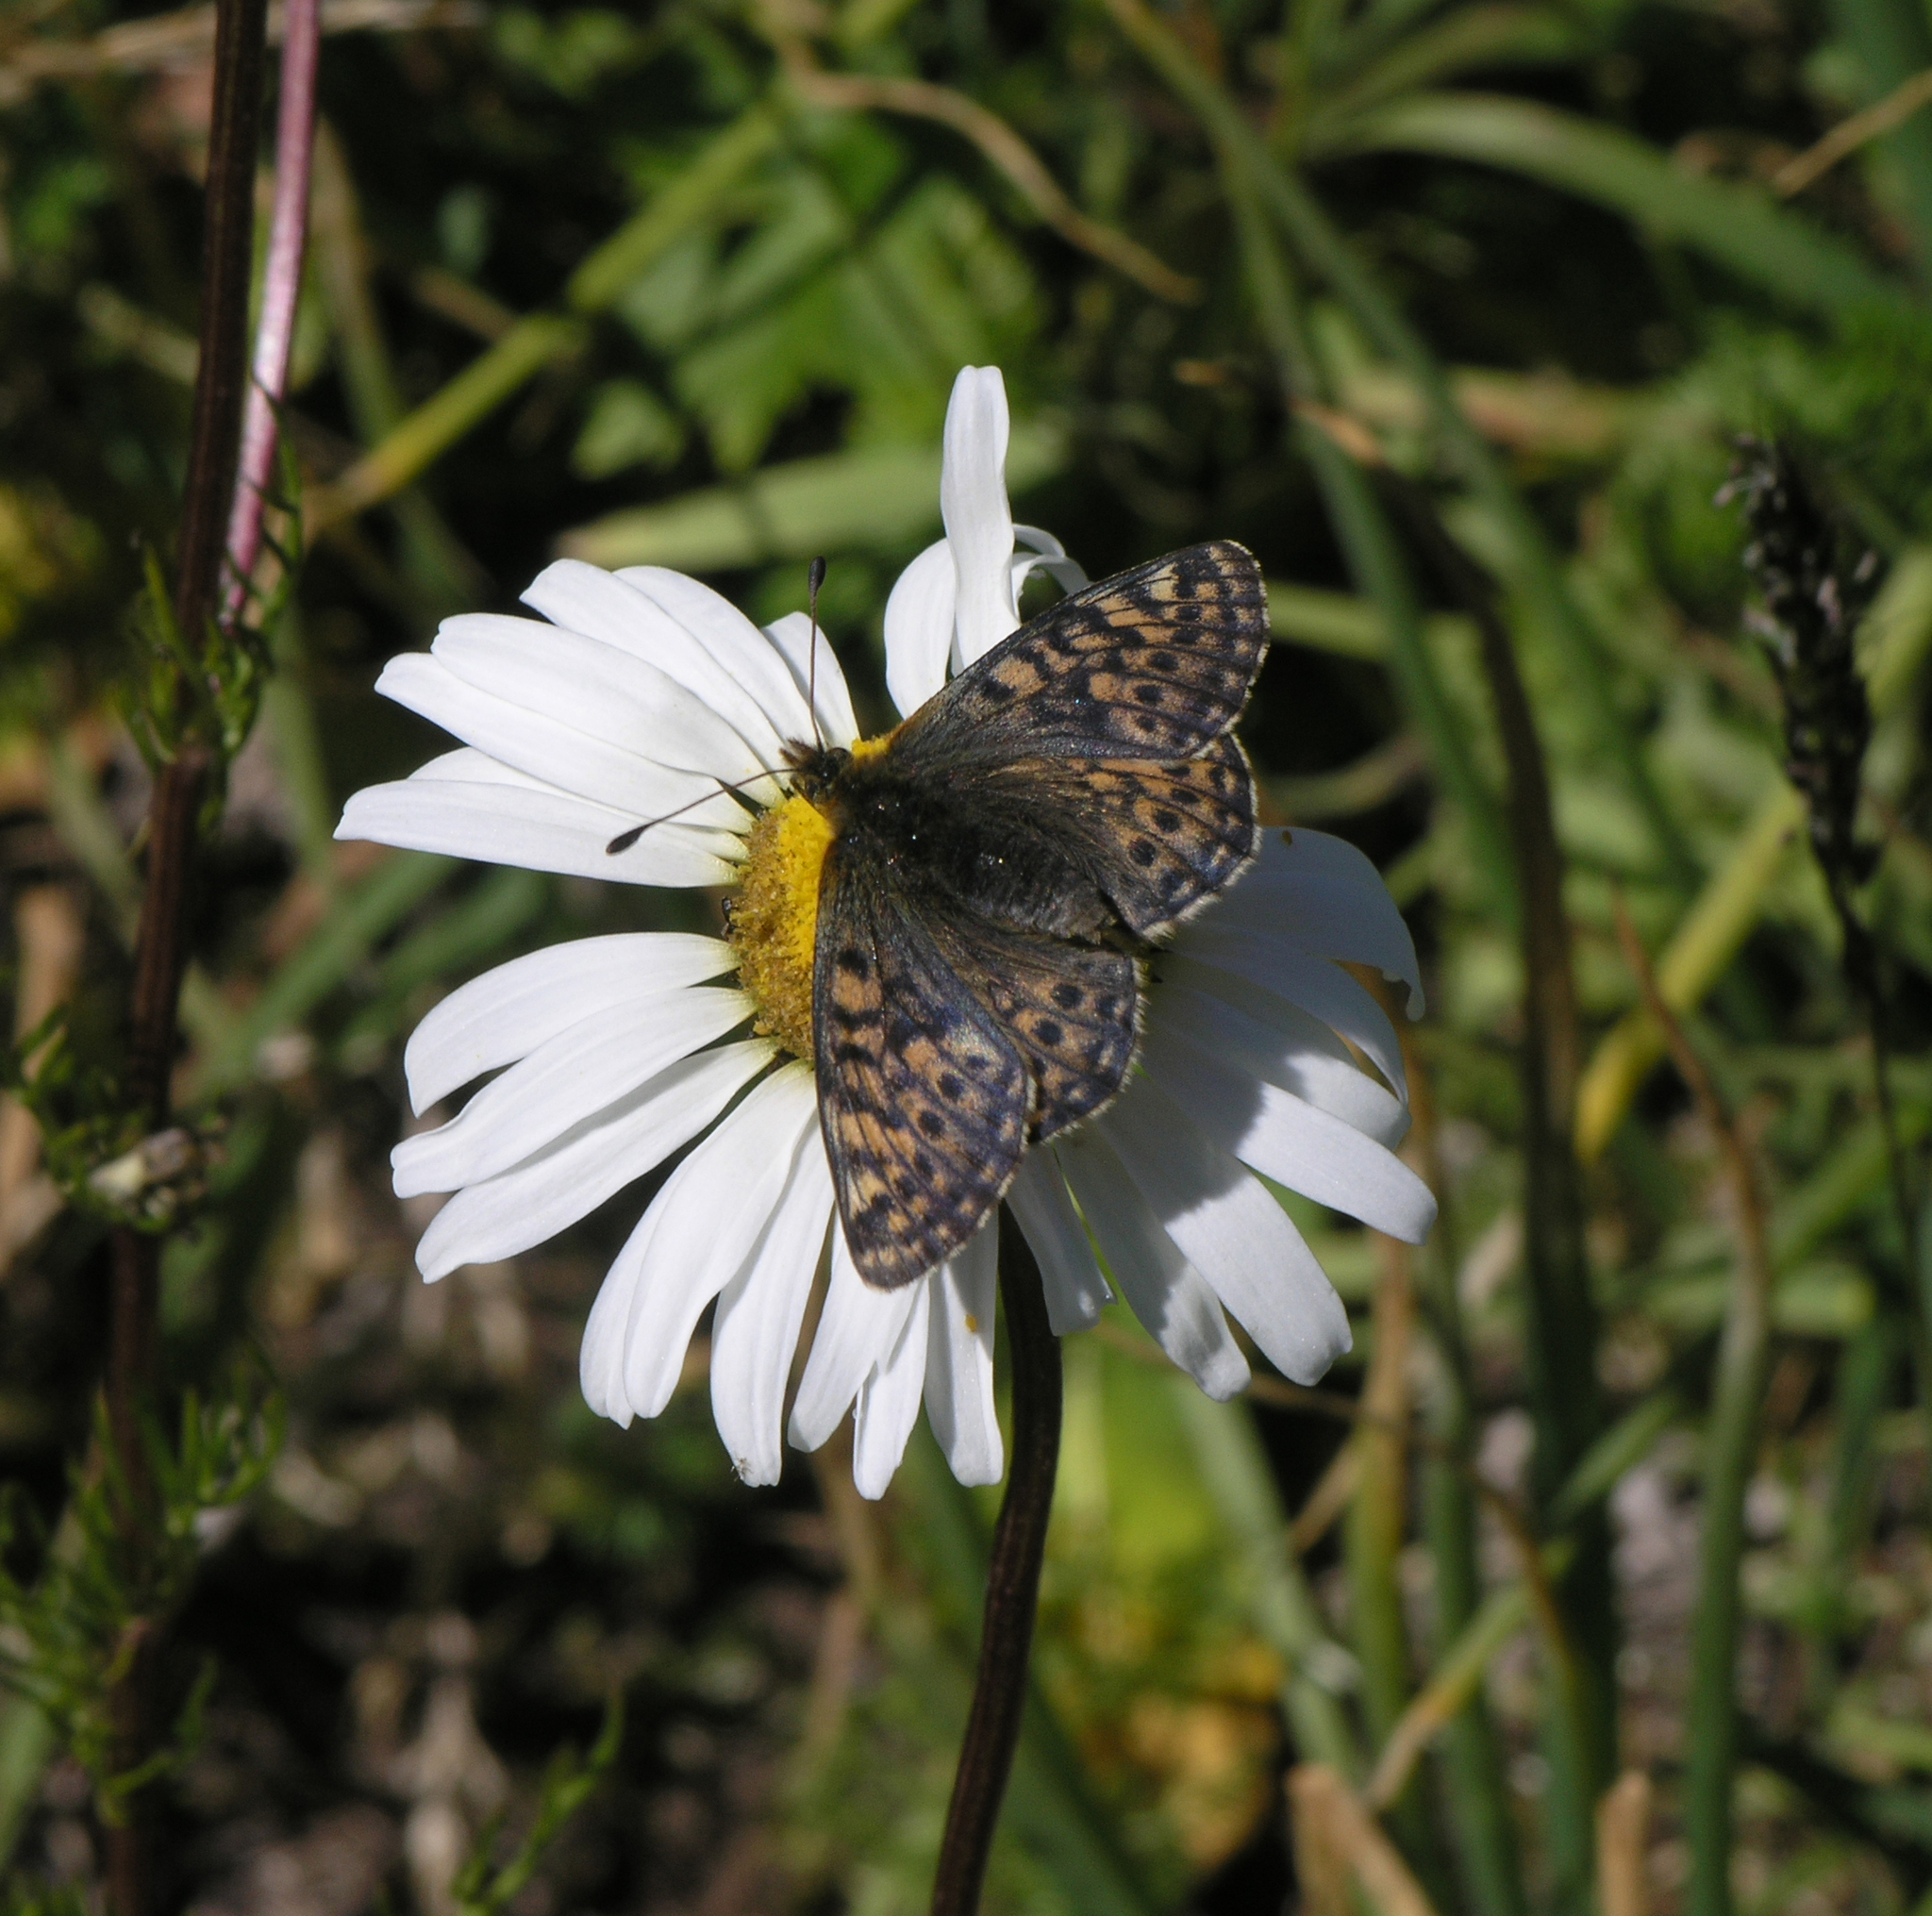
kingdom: Animalia
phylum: Arthropoda
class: Insecta
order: Lepidoptera
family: Nymphalidae
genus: Boloria
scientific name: Boloria napaea
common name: Mountain fritillary
